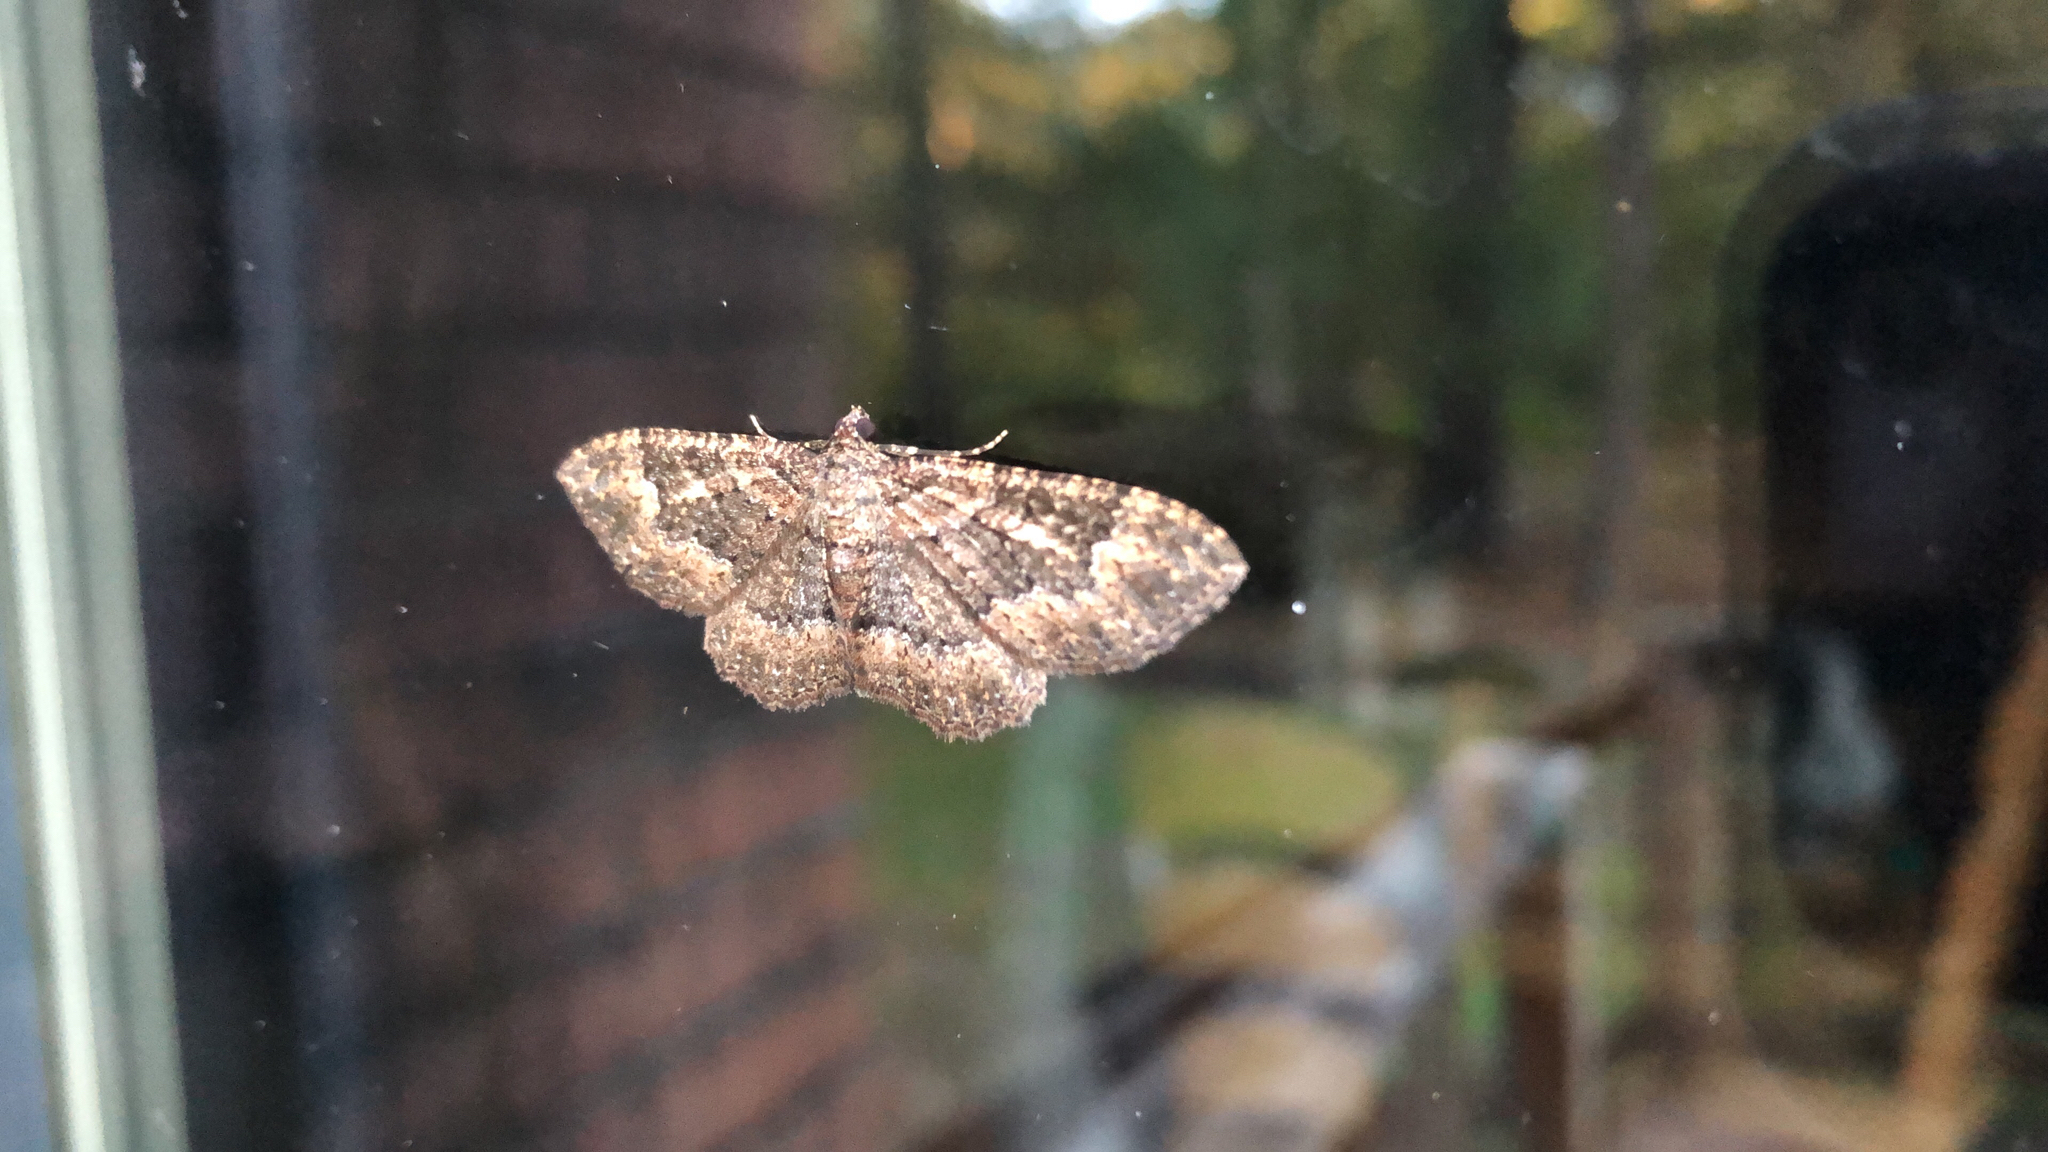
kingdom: Animalia
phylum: Arthropoda
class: Insecta
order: Lepidoptera
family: Geometridae
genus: Disclisioprocta
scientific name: Disclisioprocta stellata
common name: Somber carpet
